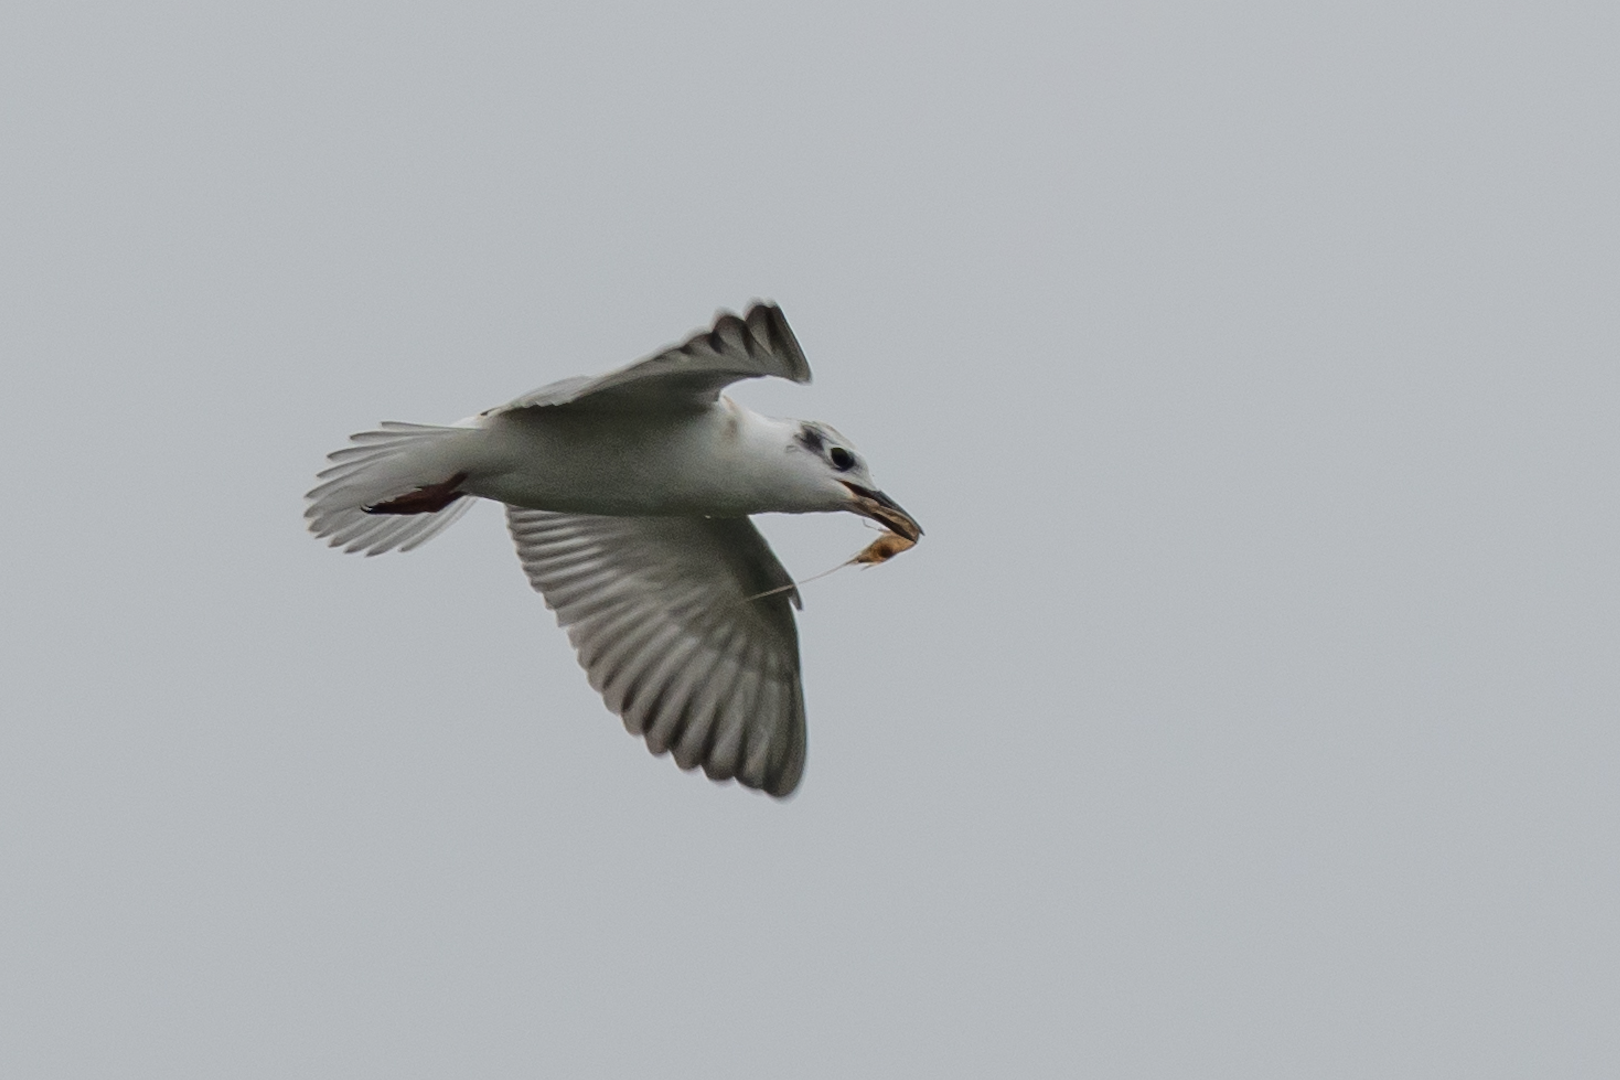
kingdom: Animalia
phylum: Chordata
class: Aves
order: Charadriiformes
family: Laridae
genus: Chlidonias
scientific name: Chlidonias hybrida
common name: Whiskered tern
